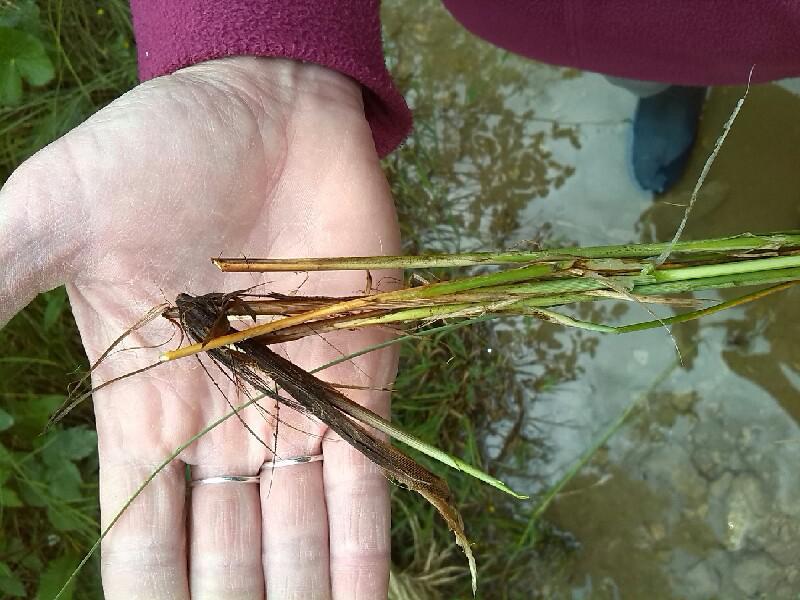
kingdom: Plantae
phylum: Tracheophyta
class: Liliopsida
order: Poales
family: Cyperaceae
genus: Carex
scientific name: Carex appropinquata
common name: Fibrous tussock-sedge
